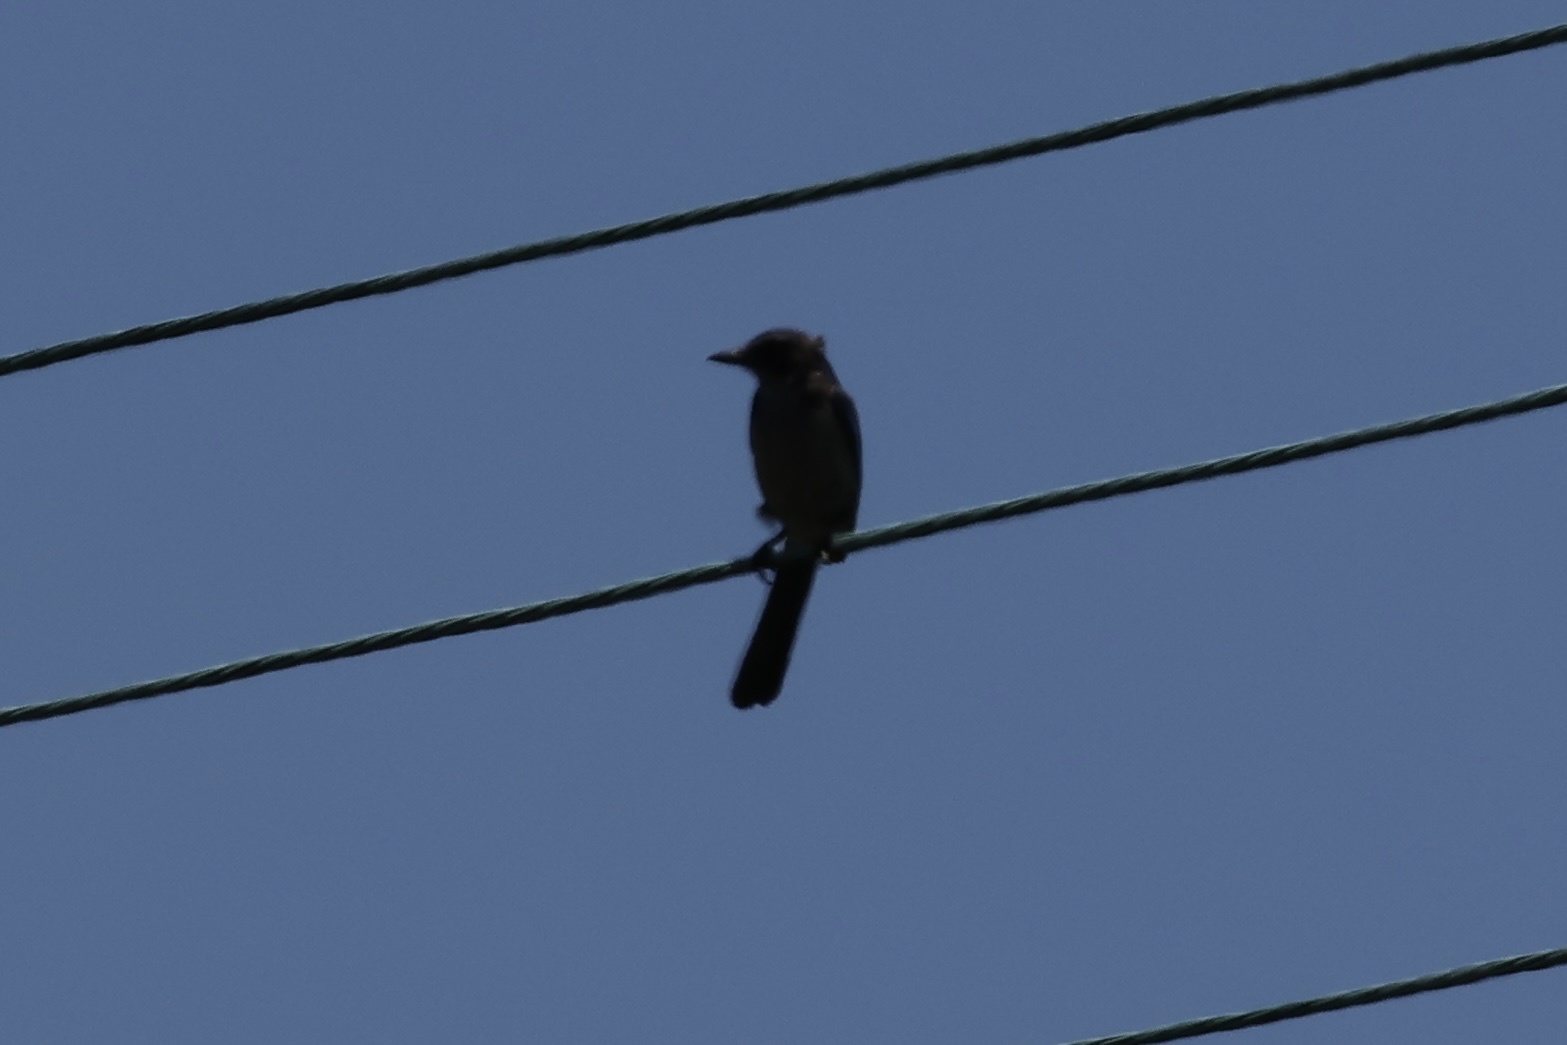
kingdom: Animalia
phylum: Chordata
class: Aves
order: Passeriformes
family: Corvidae
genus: Aphelocoma
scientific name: Aphelocoma californica
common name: California scrub-jay
